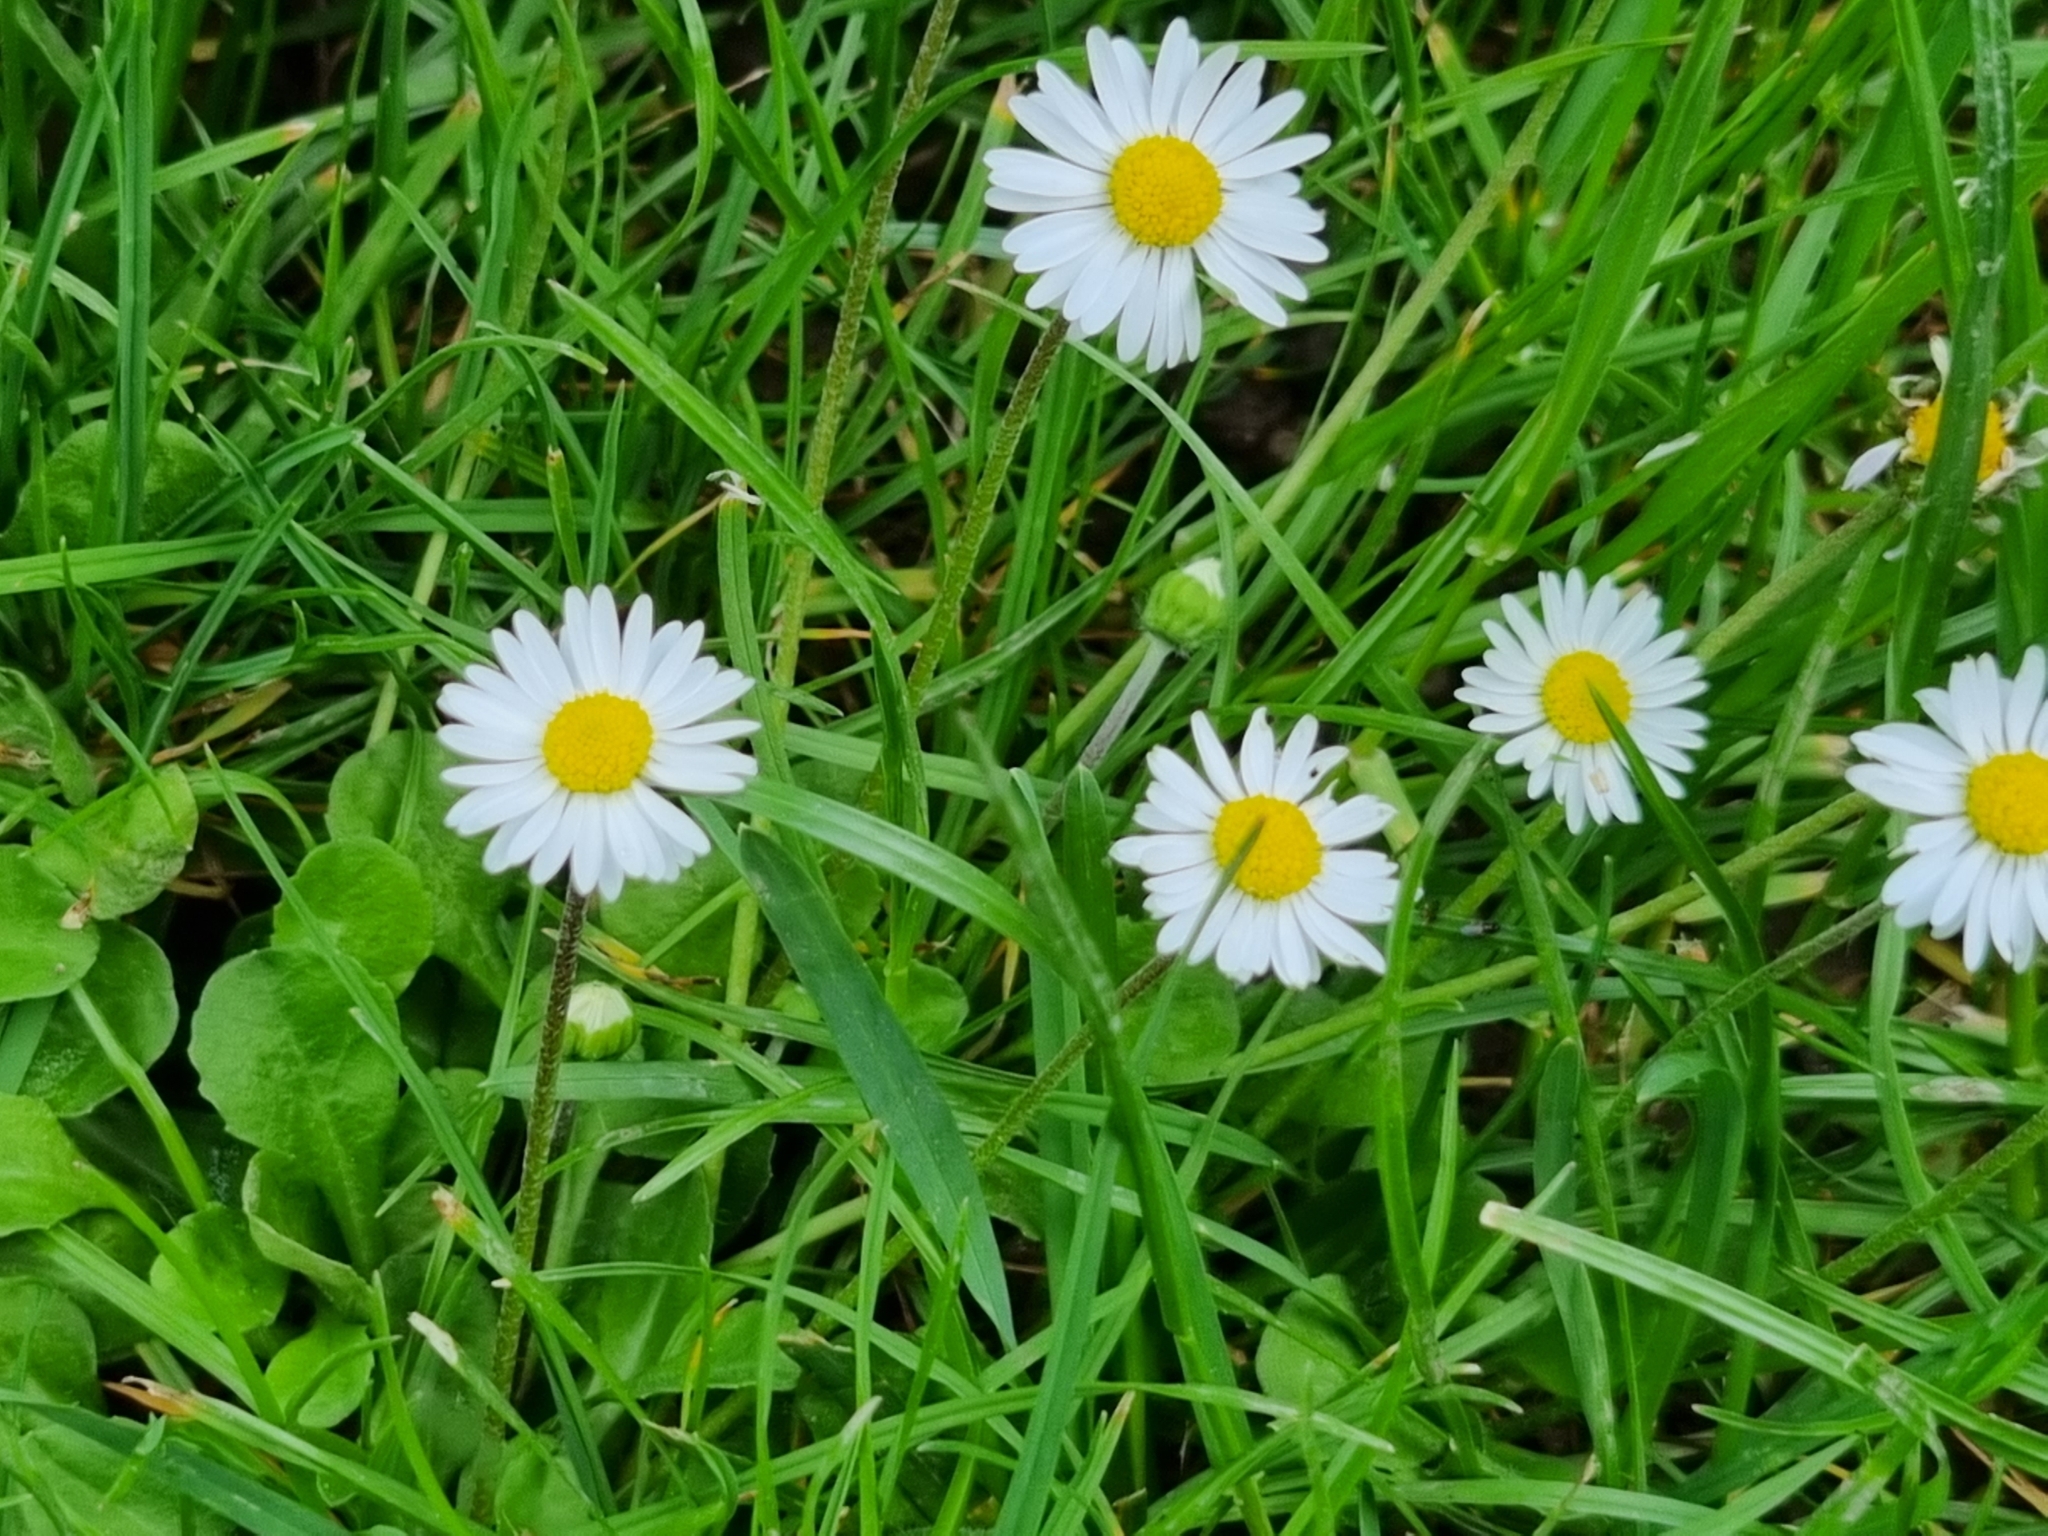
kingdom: Plantae
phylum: Tracheophyta
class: Magnoliopsida
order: Asterales
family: Asteraceae
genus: Bellis
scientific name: Bellis perennis
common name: Lawndaisy
